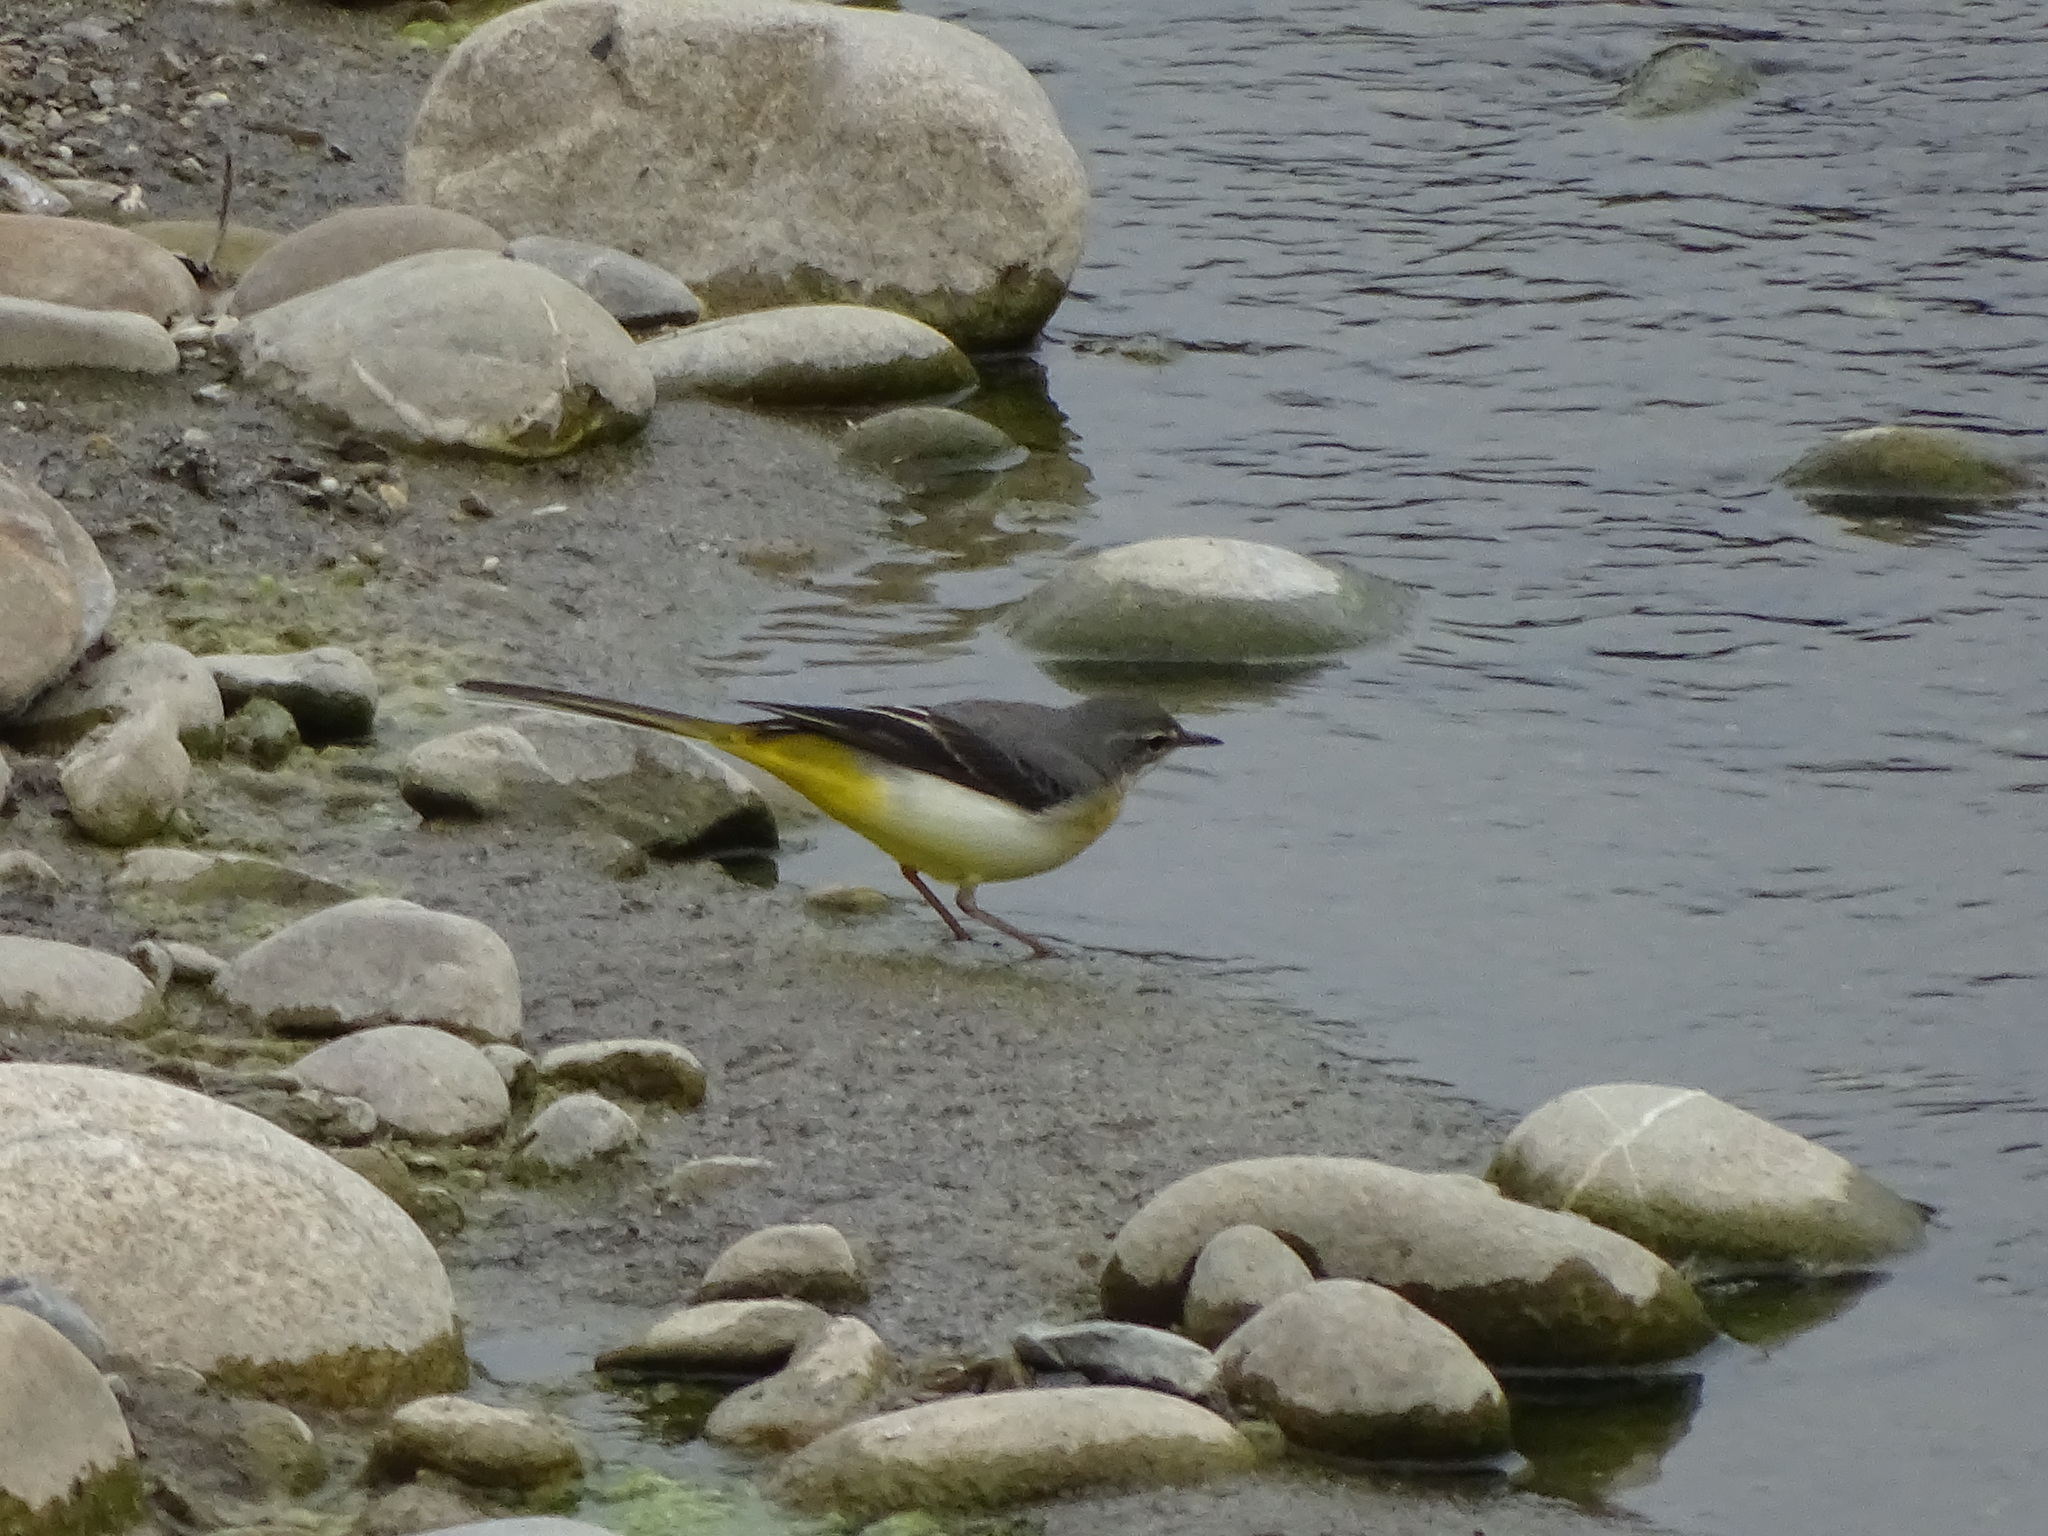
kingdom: Animalia
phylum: Chordata
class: Aves
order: Passeriformes
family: Motacillidae
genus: Motacilla
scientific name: Motacilla cinerea
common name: Grey wagtail
